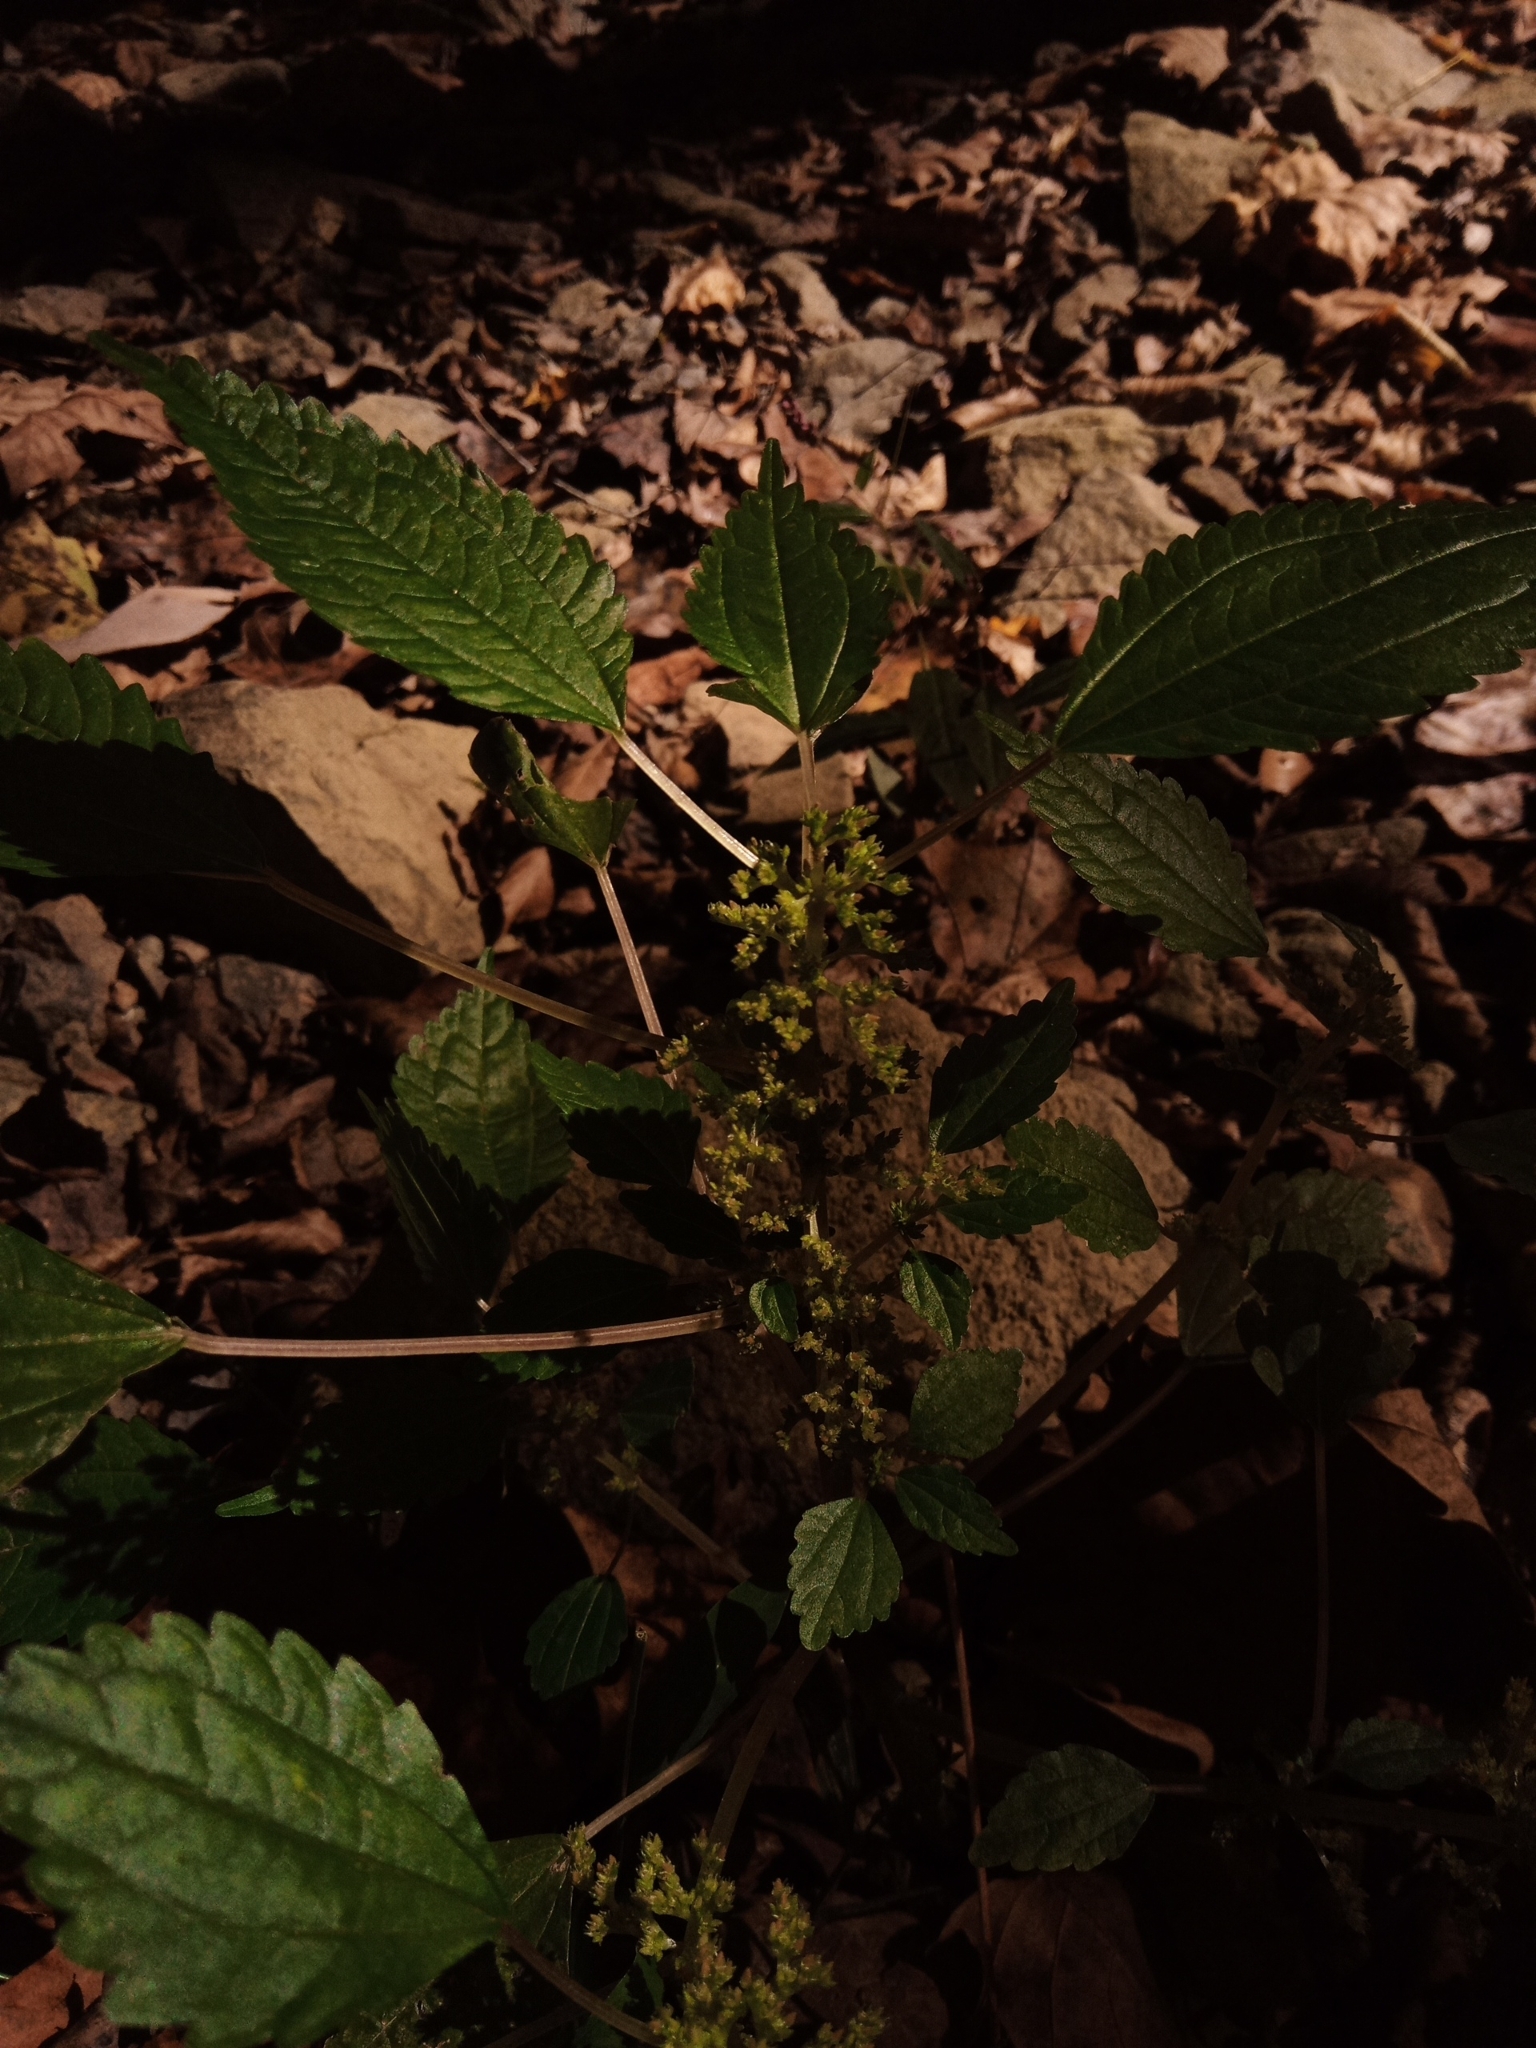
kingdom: Plantae
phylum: Tracheophyta
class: Magnoliopsida
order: Rosales
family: Urticaceae
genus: Laportea
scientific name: Laportea canadensis
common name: Canada nettle
